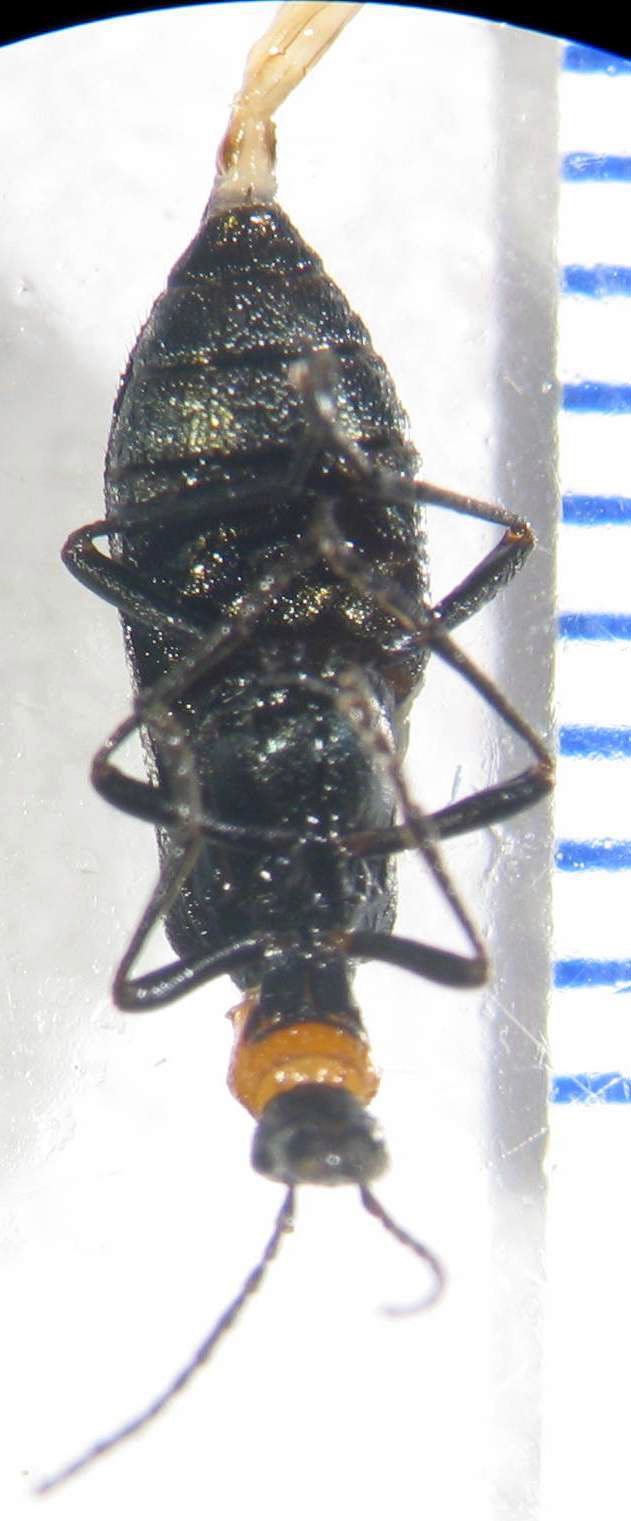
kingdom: Animalia
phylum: Arthropoda
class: Insecta
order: Coleoptera
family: Oedemeridae
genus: Dohrnia
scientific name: Dohrnia
